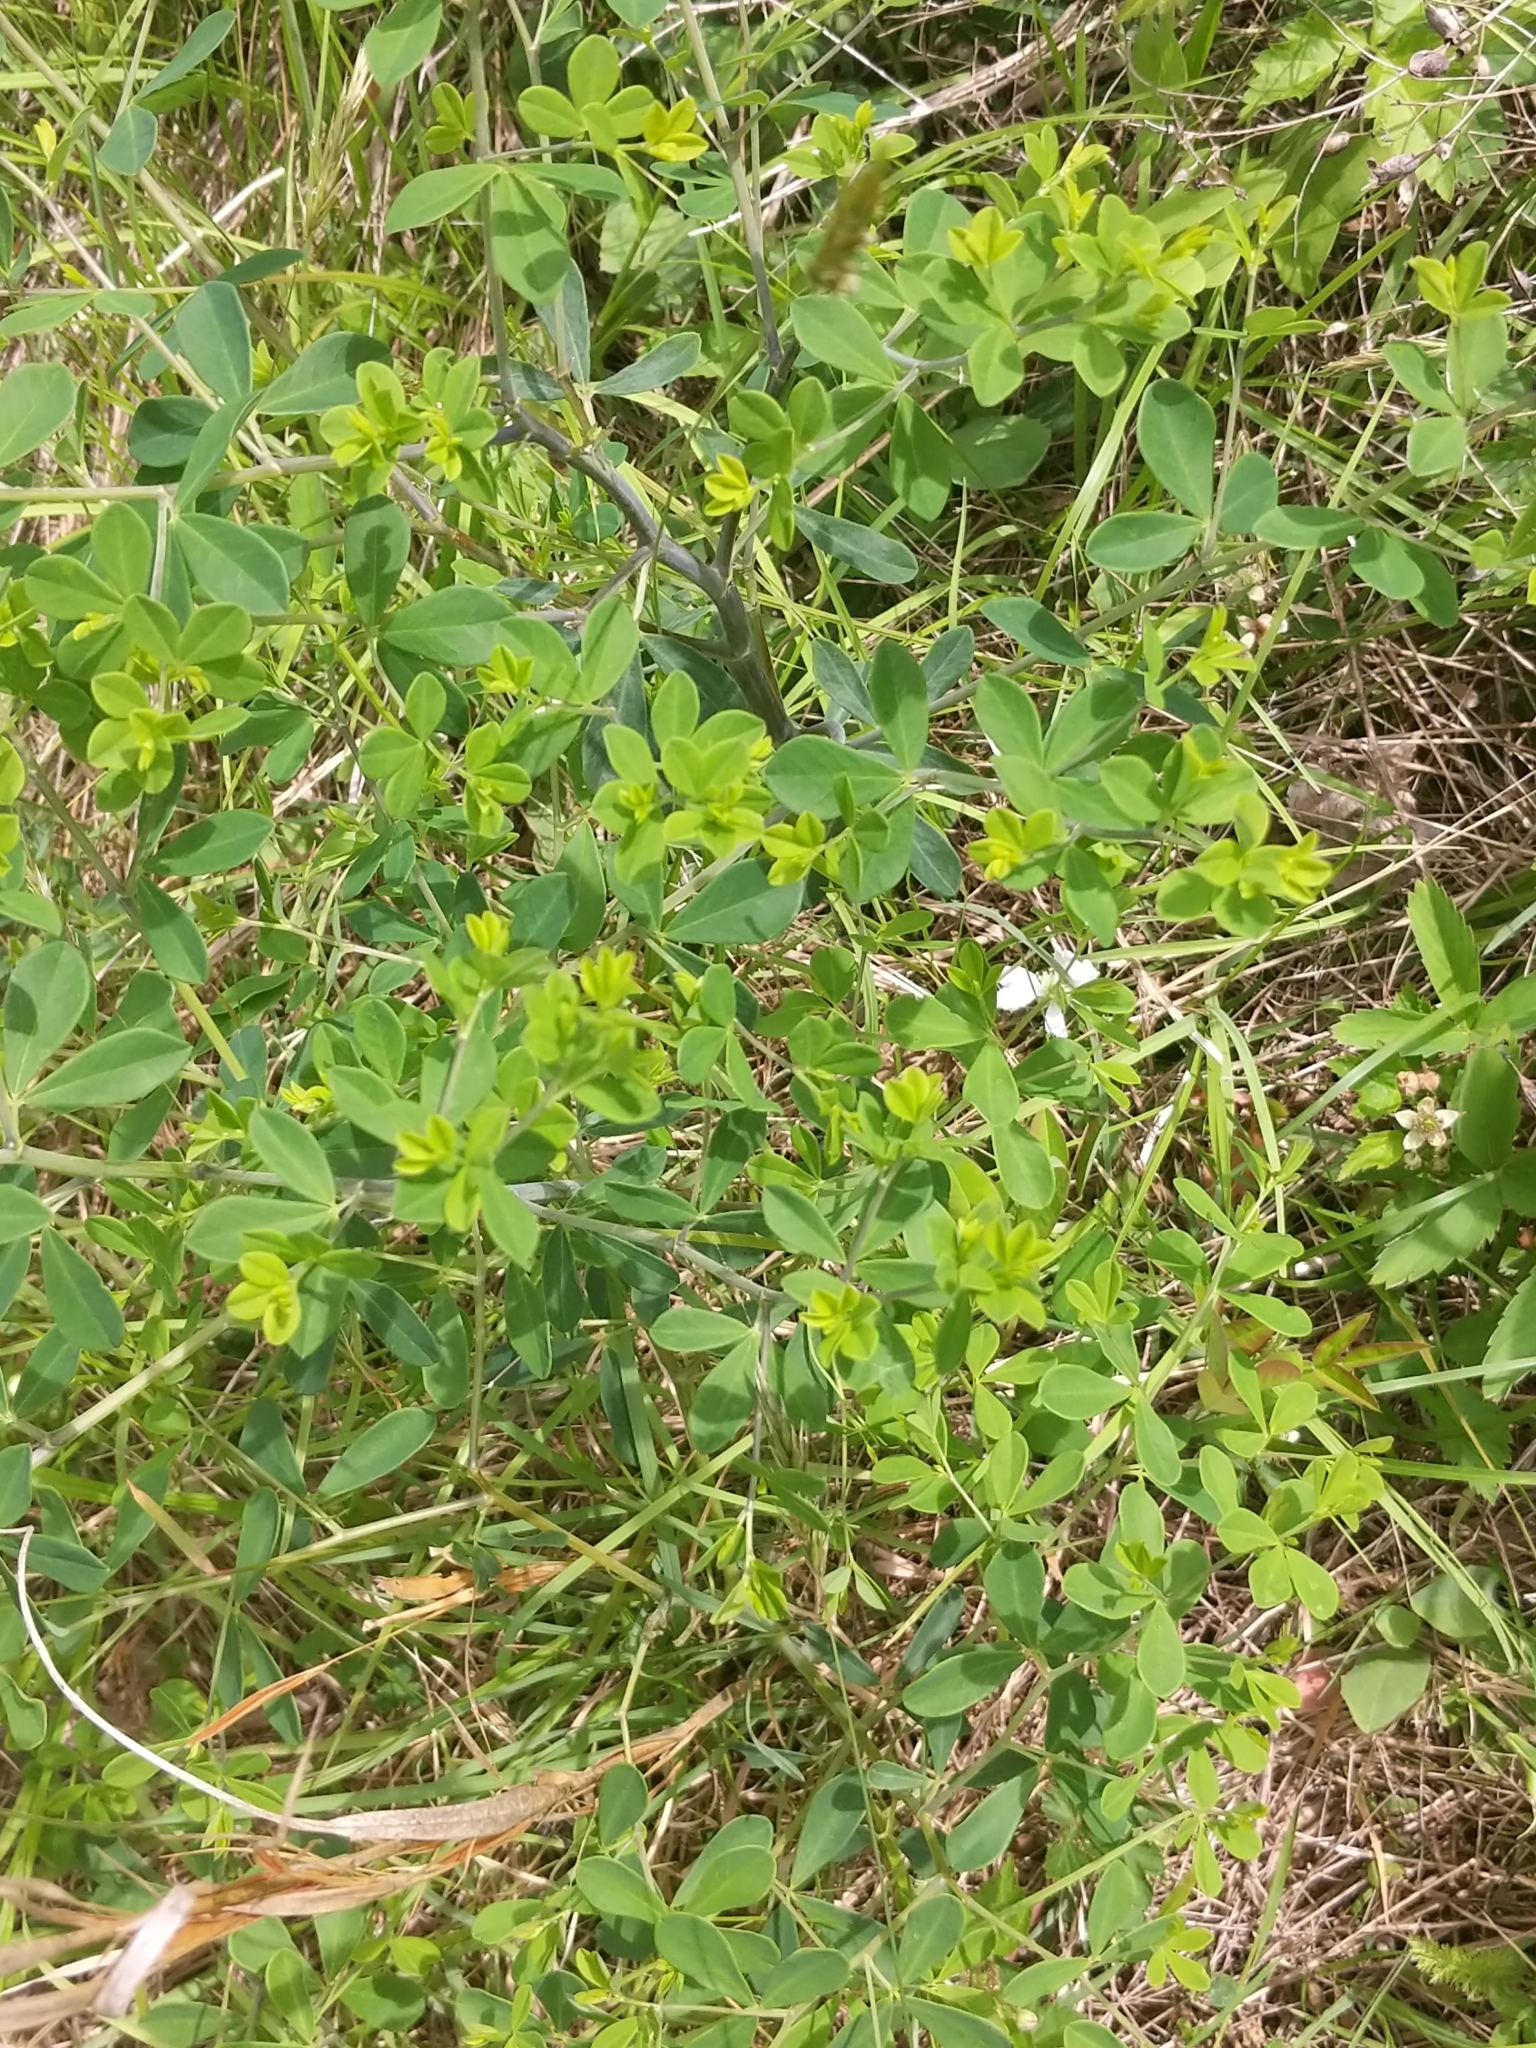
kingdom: Plantae
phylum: Tracheophyta
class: Magnoliopsida
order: Fabales
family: Fabaceae
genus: Baptisia
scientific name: Baptisia tinctoria
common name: Wild indigo
